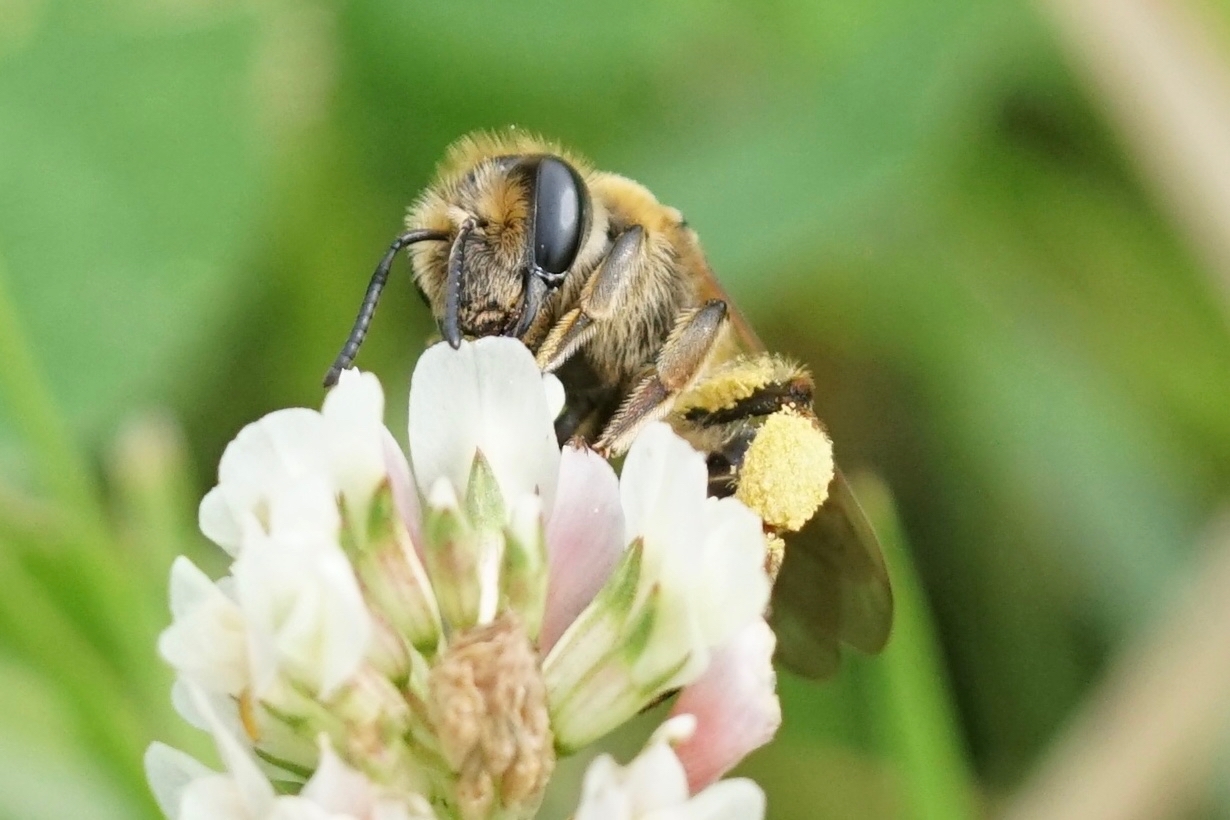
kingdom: Animalia
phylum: Arthropoda
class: Insecta
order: Hymenoptera
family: Andrenidae
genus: Andrena
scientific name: Andrena wilkella
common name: Wilke's mining bee
